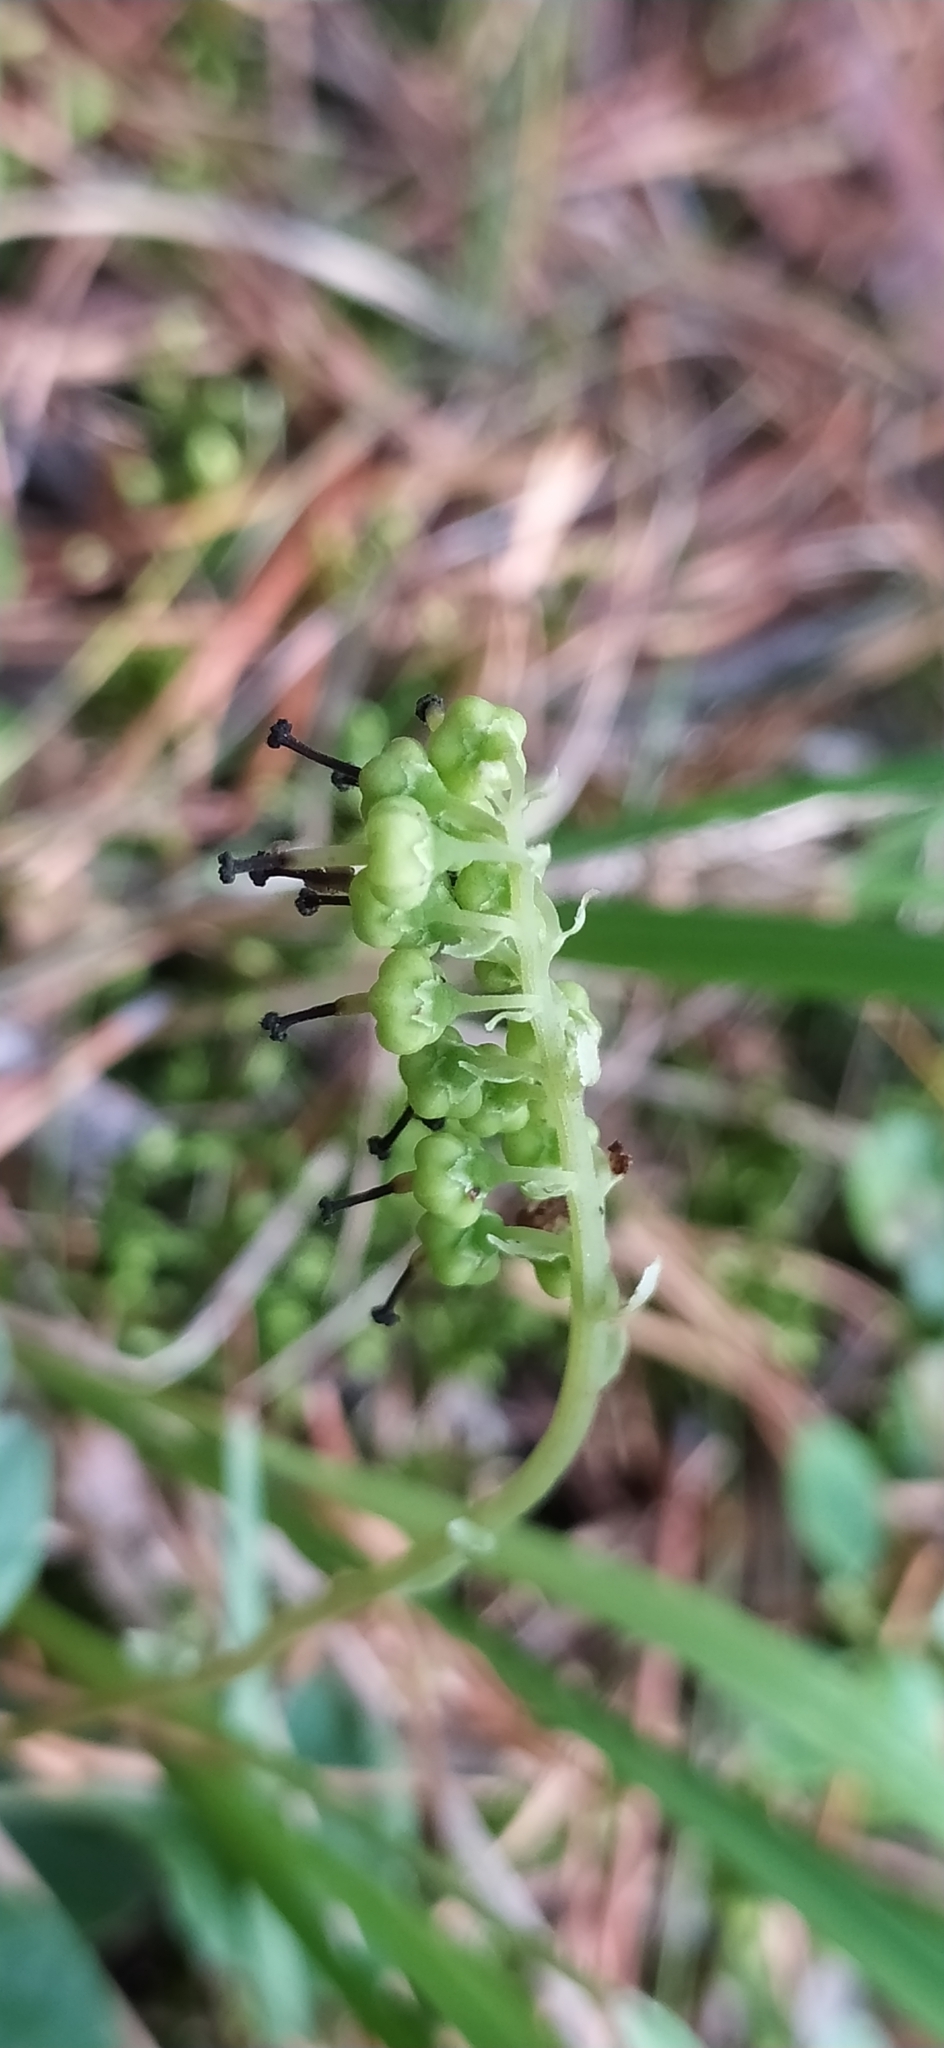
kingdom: Plantae
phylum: Tracheophyta
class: Magnoliopsida
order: Ericales
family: Ericaceae
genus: Orthilia
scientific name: Orthilia secunda
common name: One-sided orthilia
